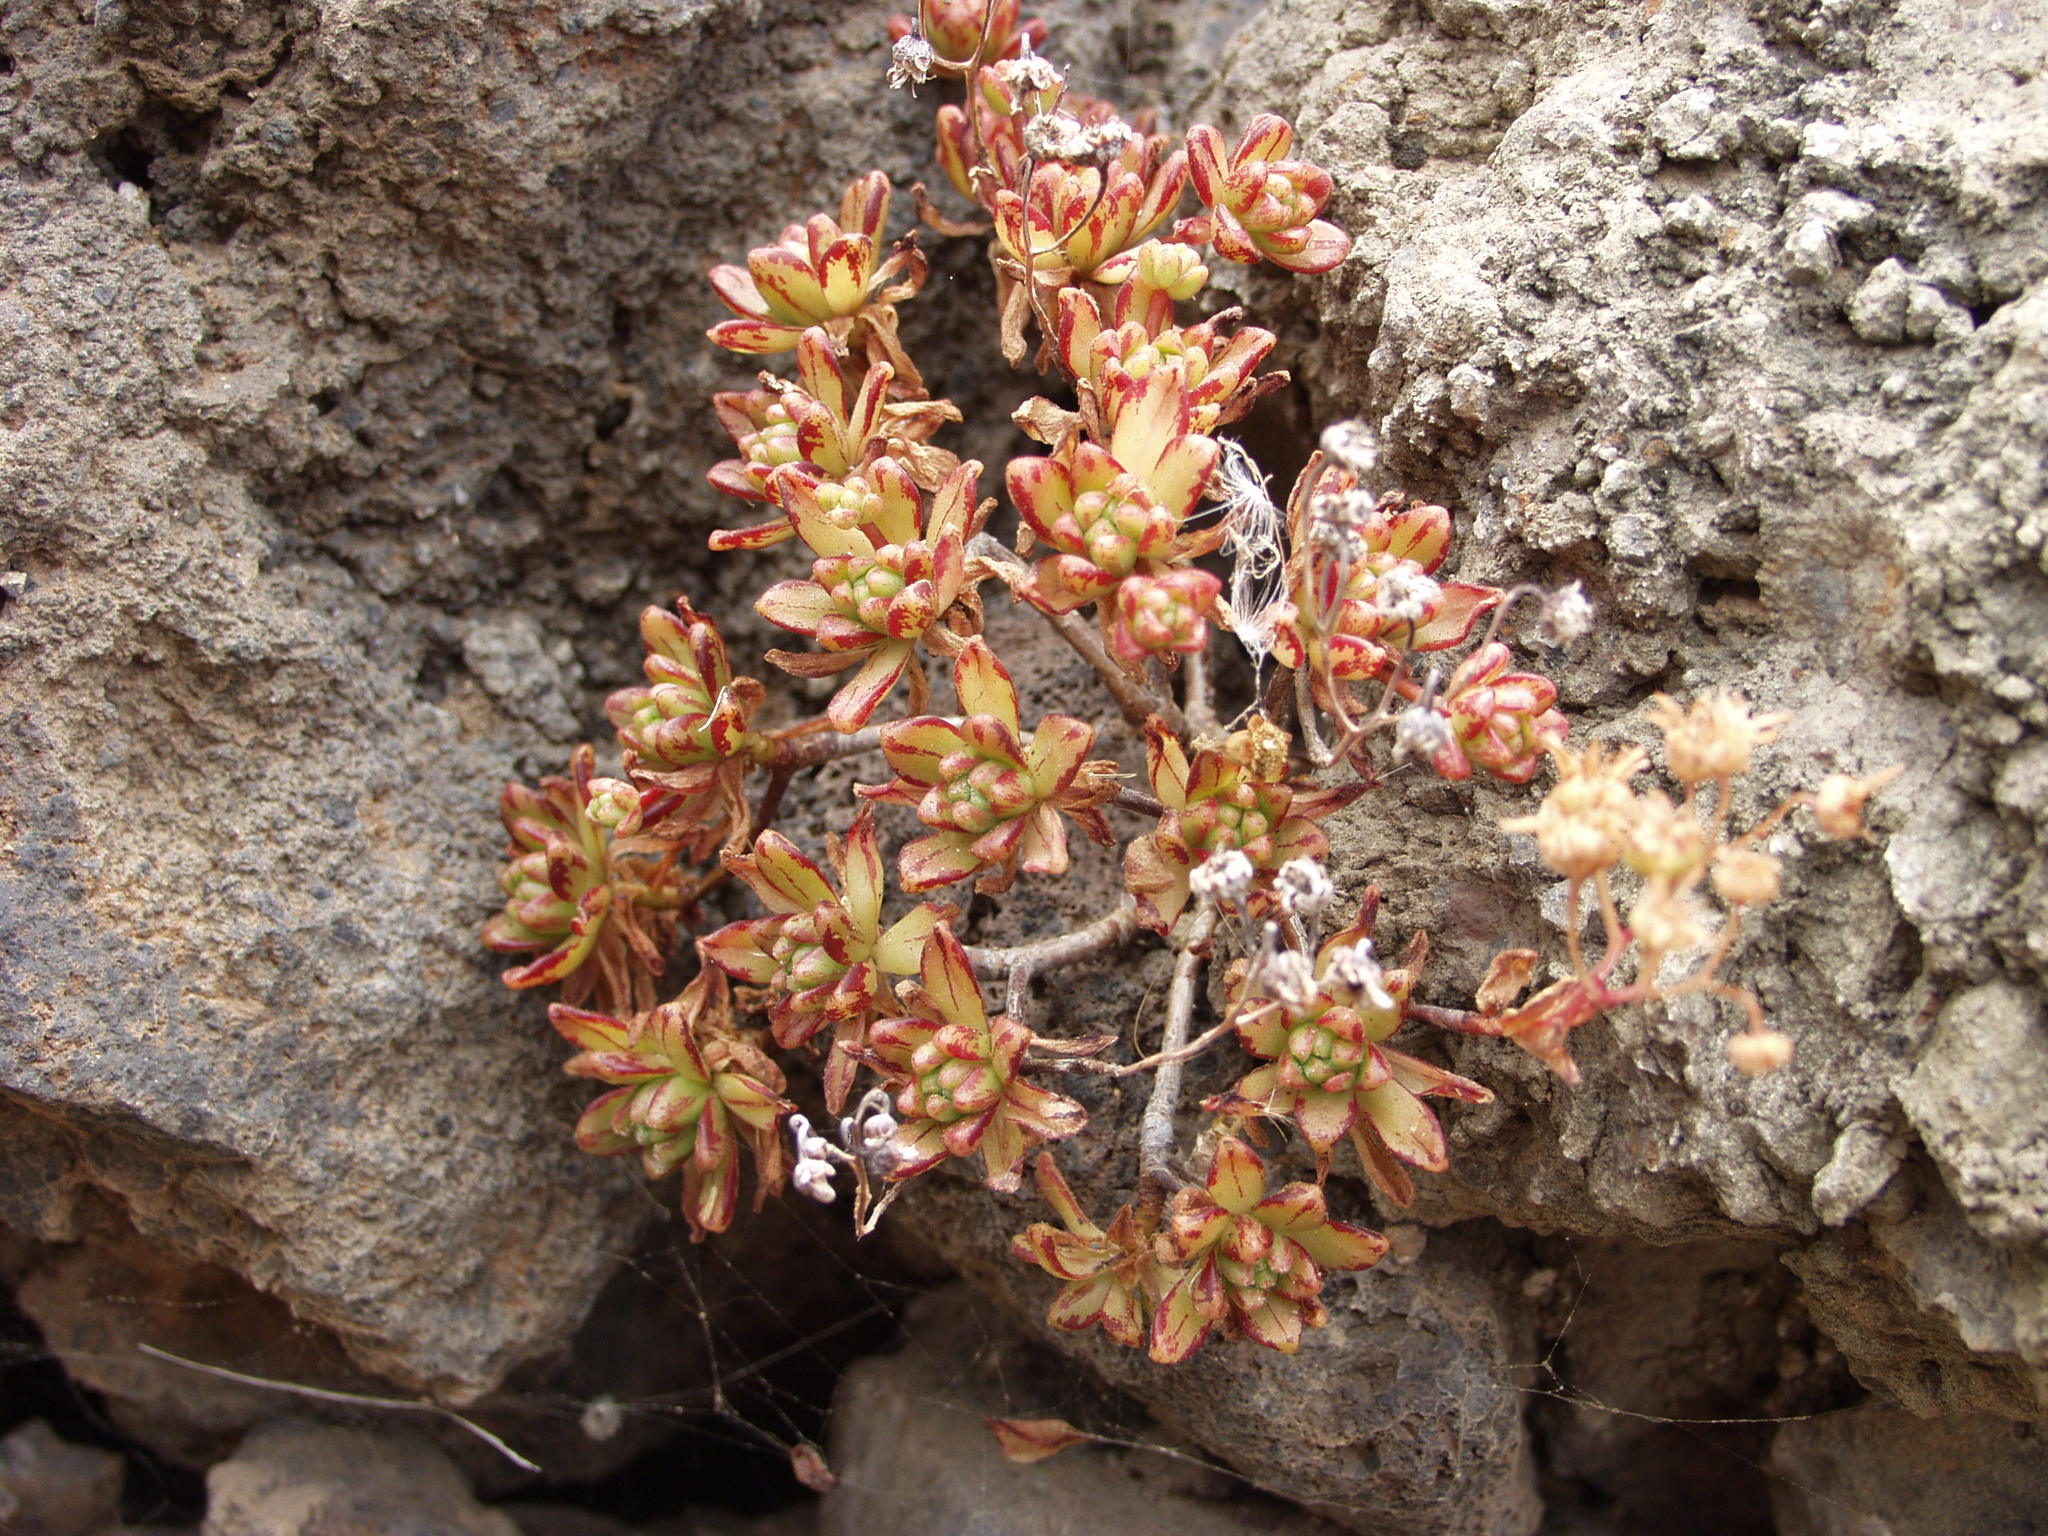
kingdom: Plantae
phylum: Tracheophyta
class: Magnoliopsida
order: Saxifragales
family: Crassulaceae
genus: Aeonium
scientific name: Aeonium sedifolium
